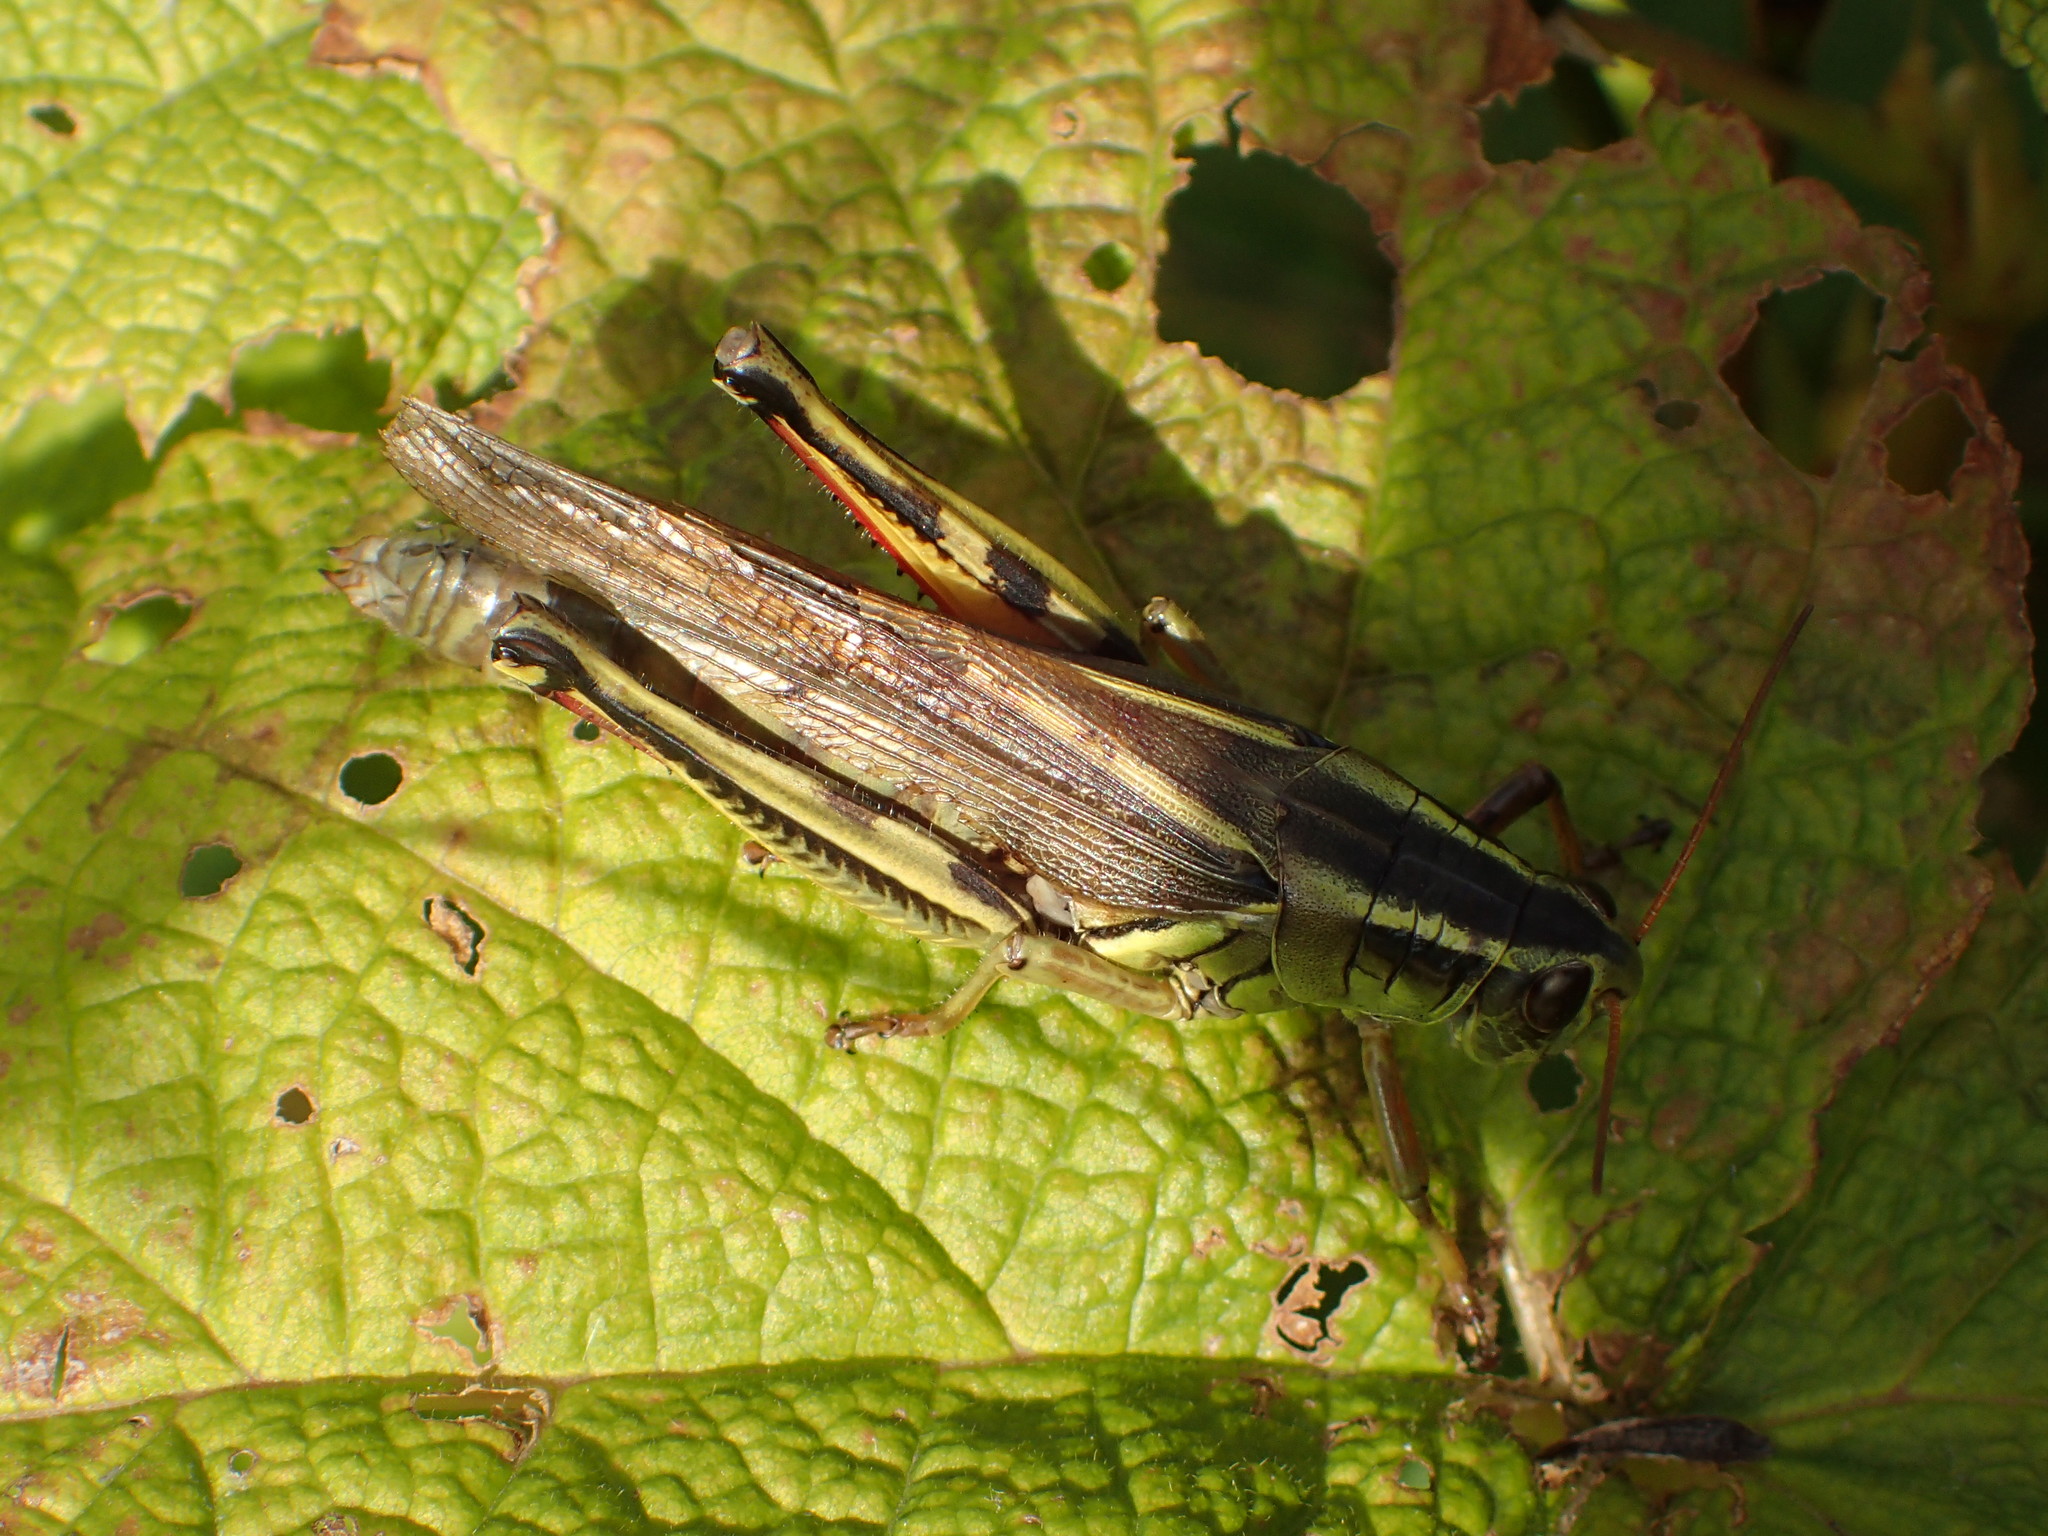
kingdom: Animalia
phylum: Arthropoda
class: Insecta
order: Orthoptera
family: Acrididae
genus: Melanoplus
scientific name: Melanoplus bivittatus
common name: Two-striped grasshopper
